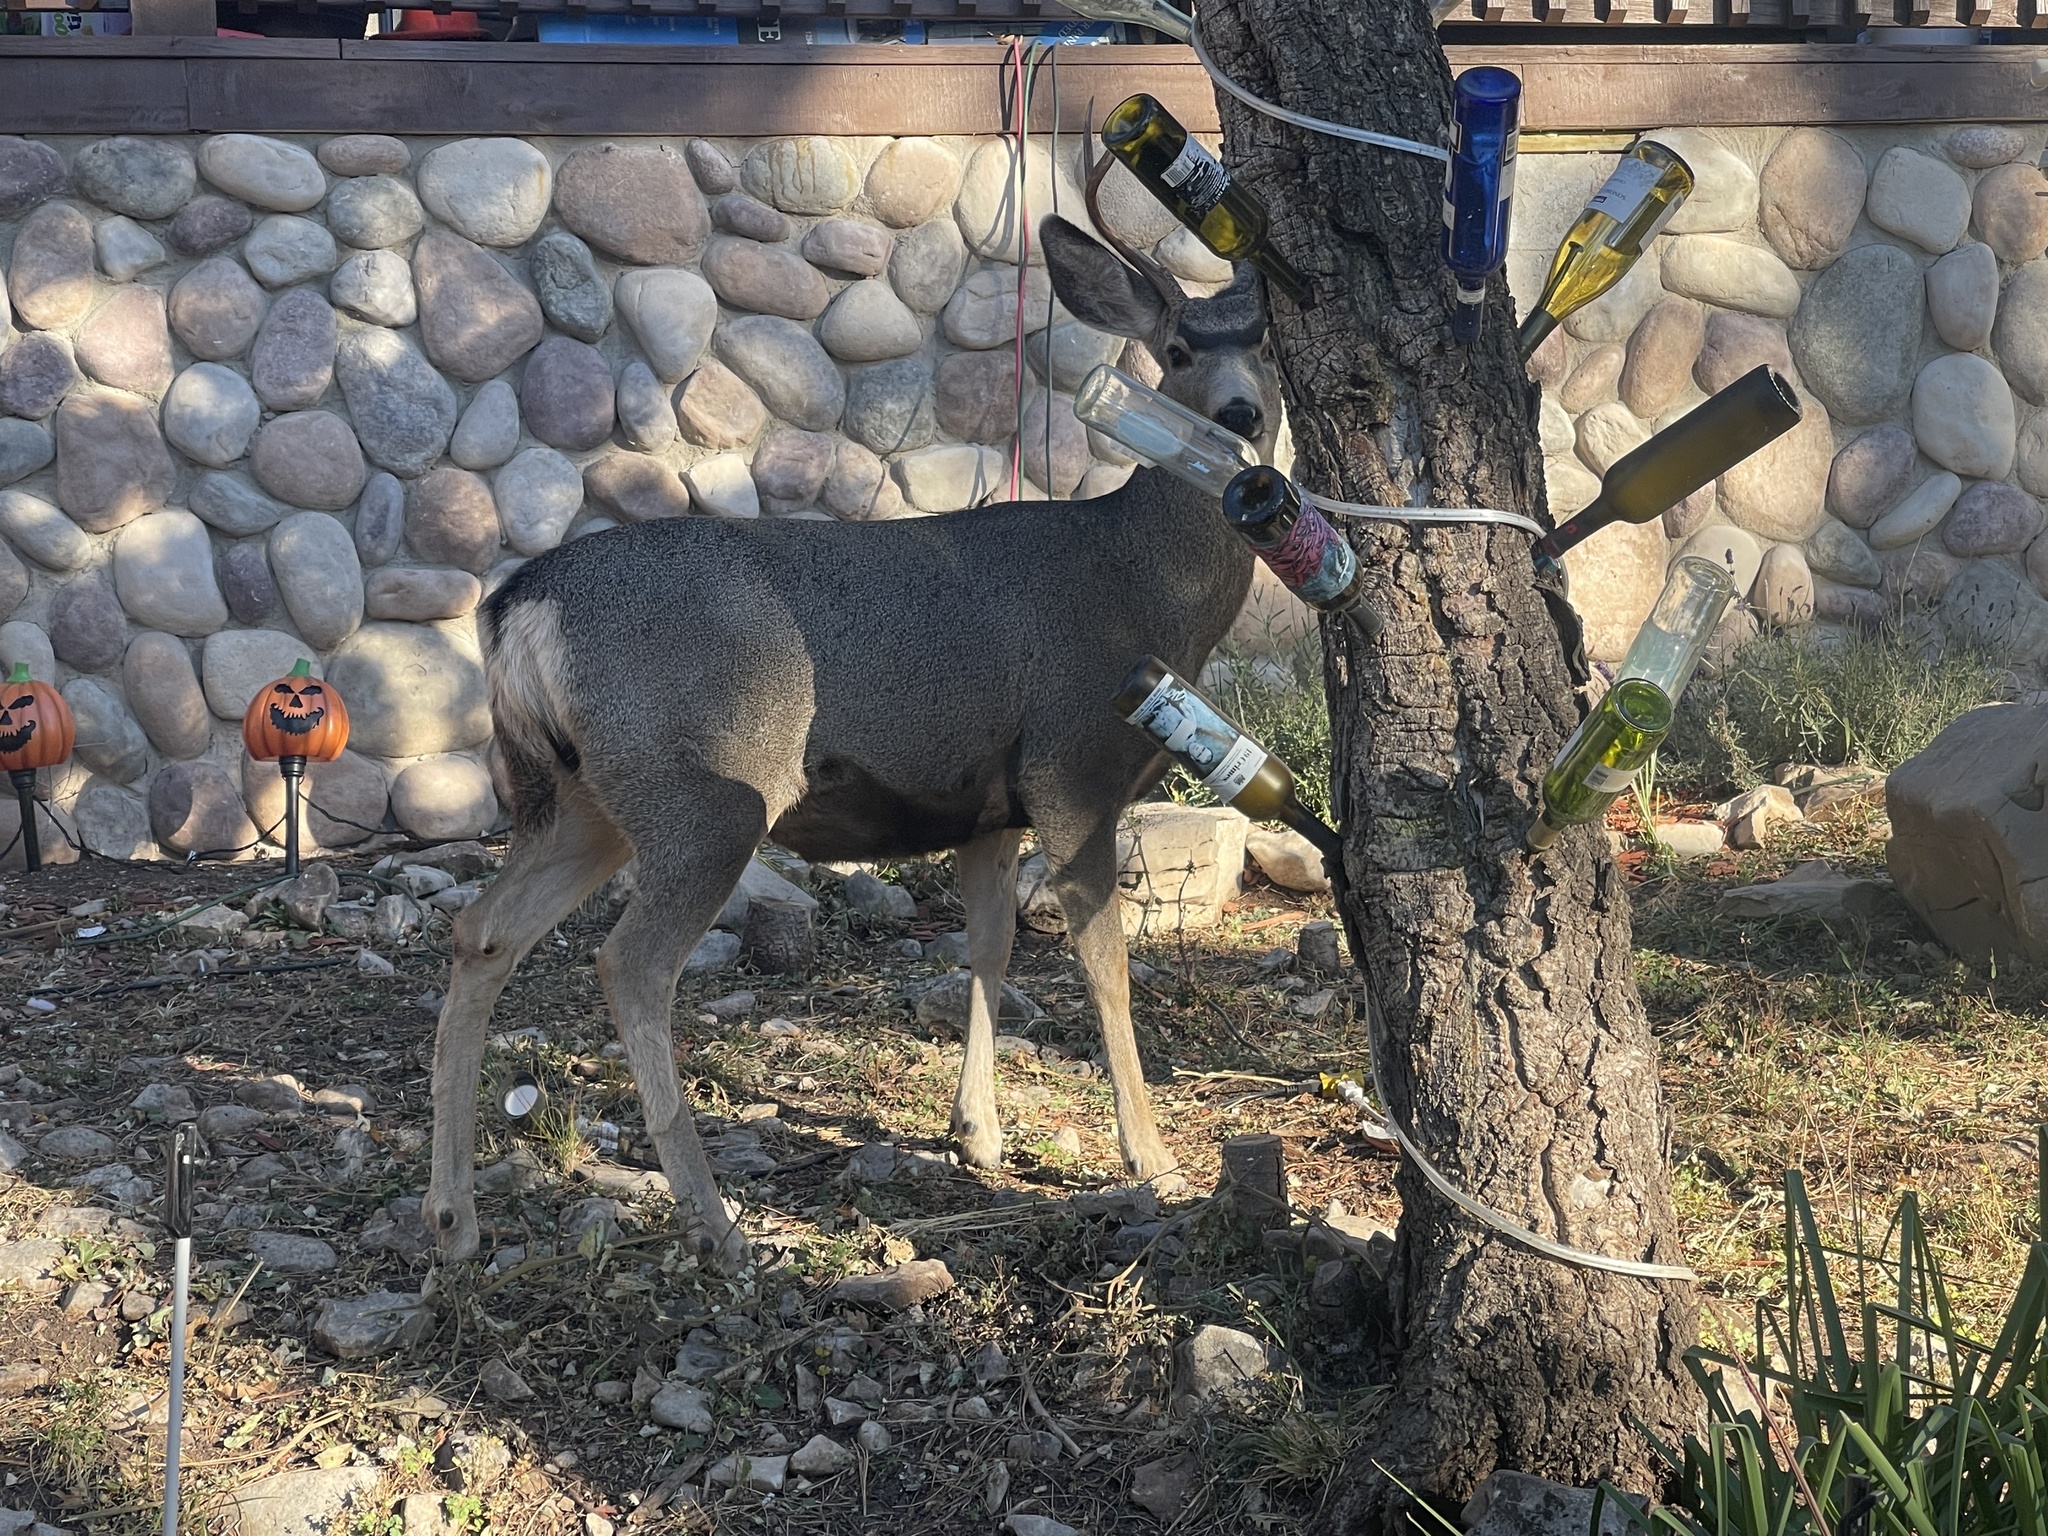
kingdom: Animalia
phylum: Chordata
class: Mammalia
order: Artiodactyla
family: Cervidae
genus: Odocoileus
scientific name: Odocoileus hemionus
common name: Mule deer
